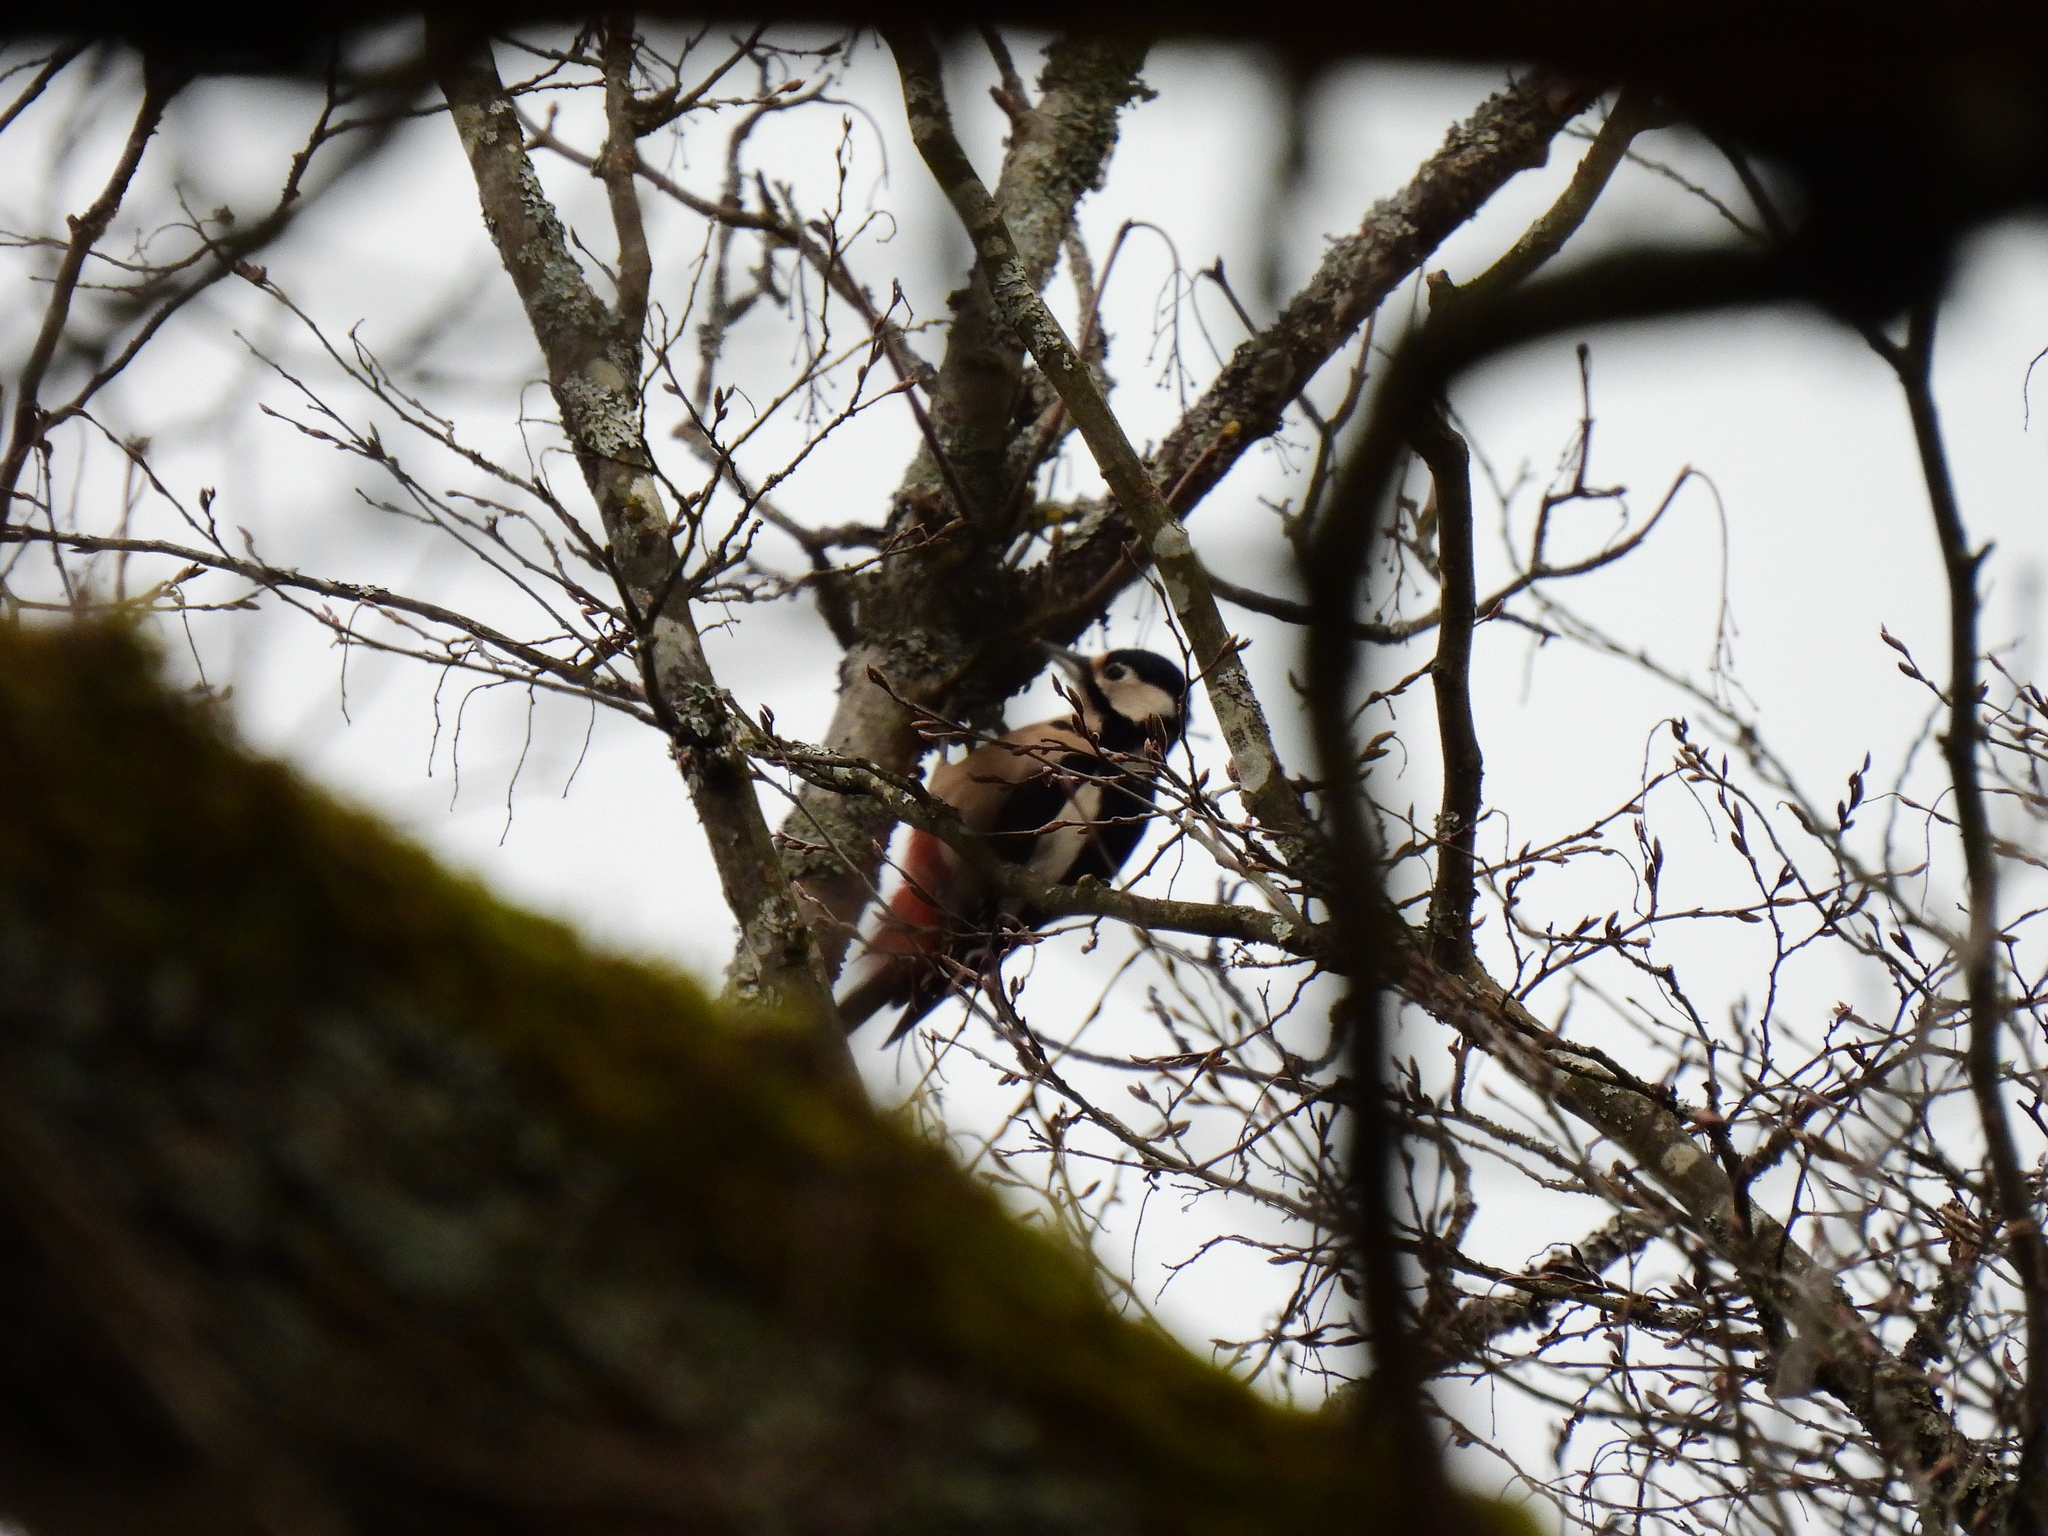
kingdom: Animalia
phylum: Chordata
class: Aves
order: Piciformes
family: Picidae
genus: Dendrocopos
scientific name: Dendrocopos major
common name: Great spotted woodpecker
